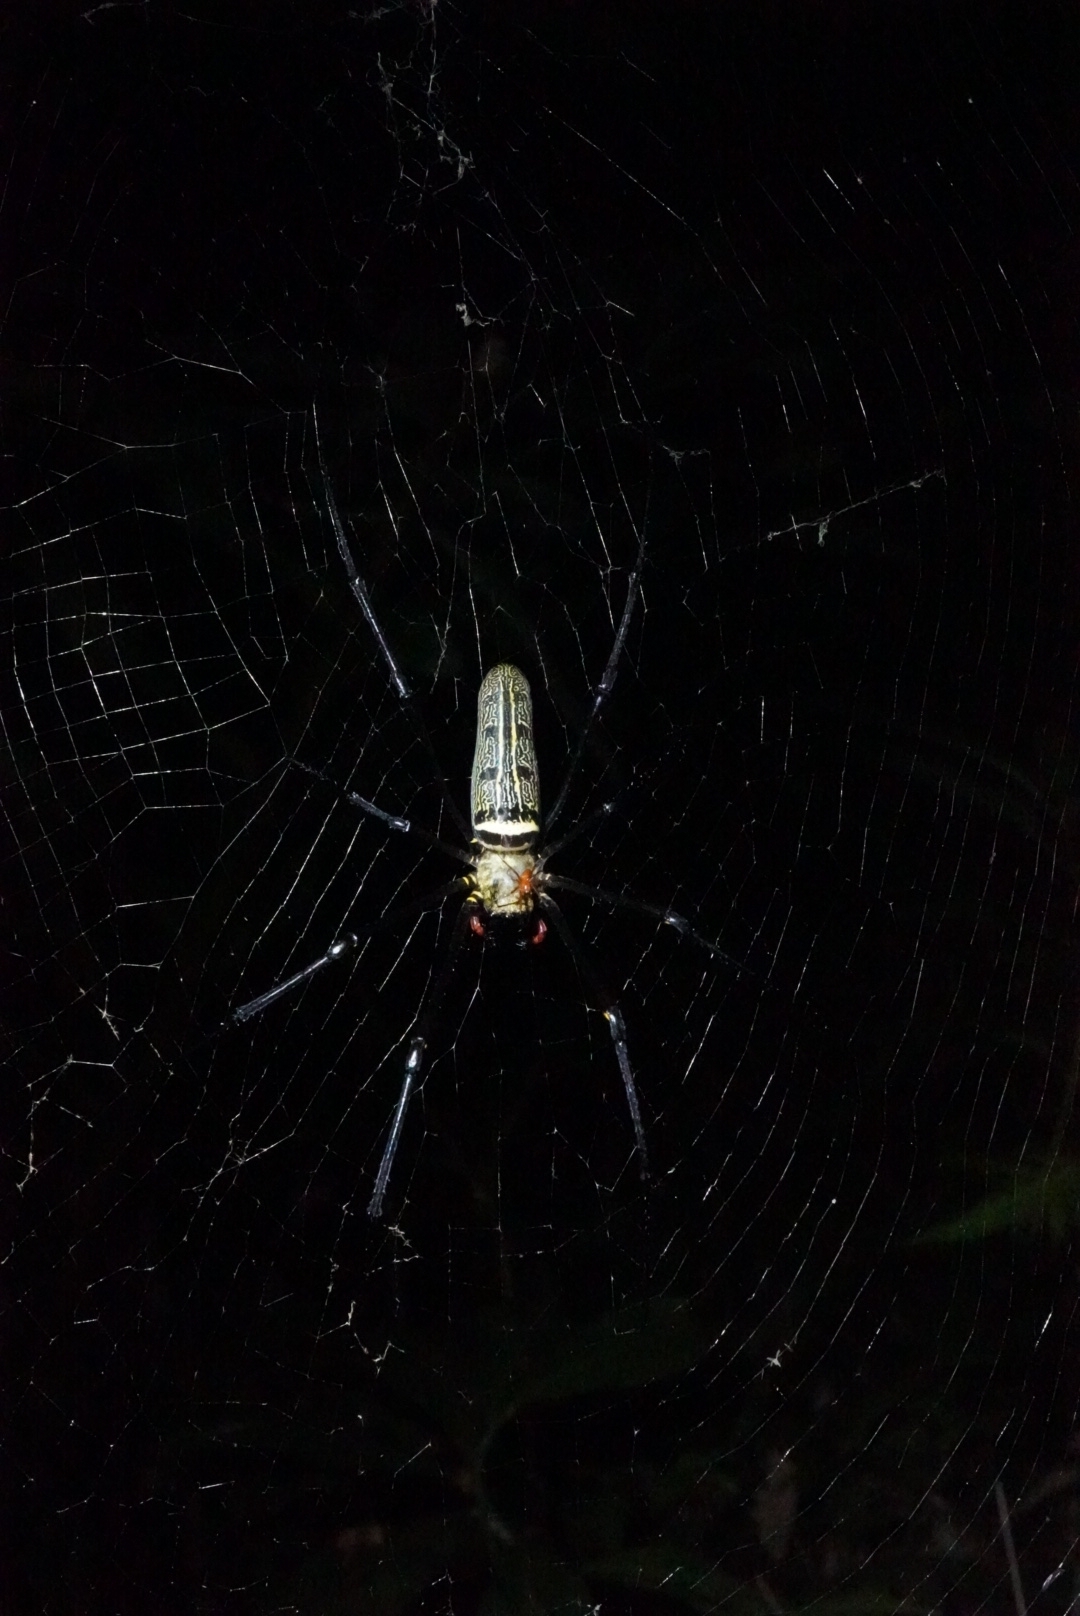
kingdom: Animalia
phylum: Arthropoda
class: Arachnida
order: Araneae
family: Araneidae
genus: Nephila
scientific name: Nephila pilipes
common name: Giant golden orb weaver
